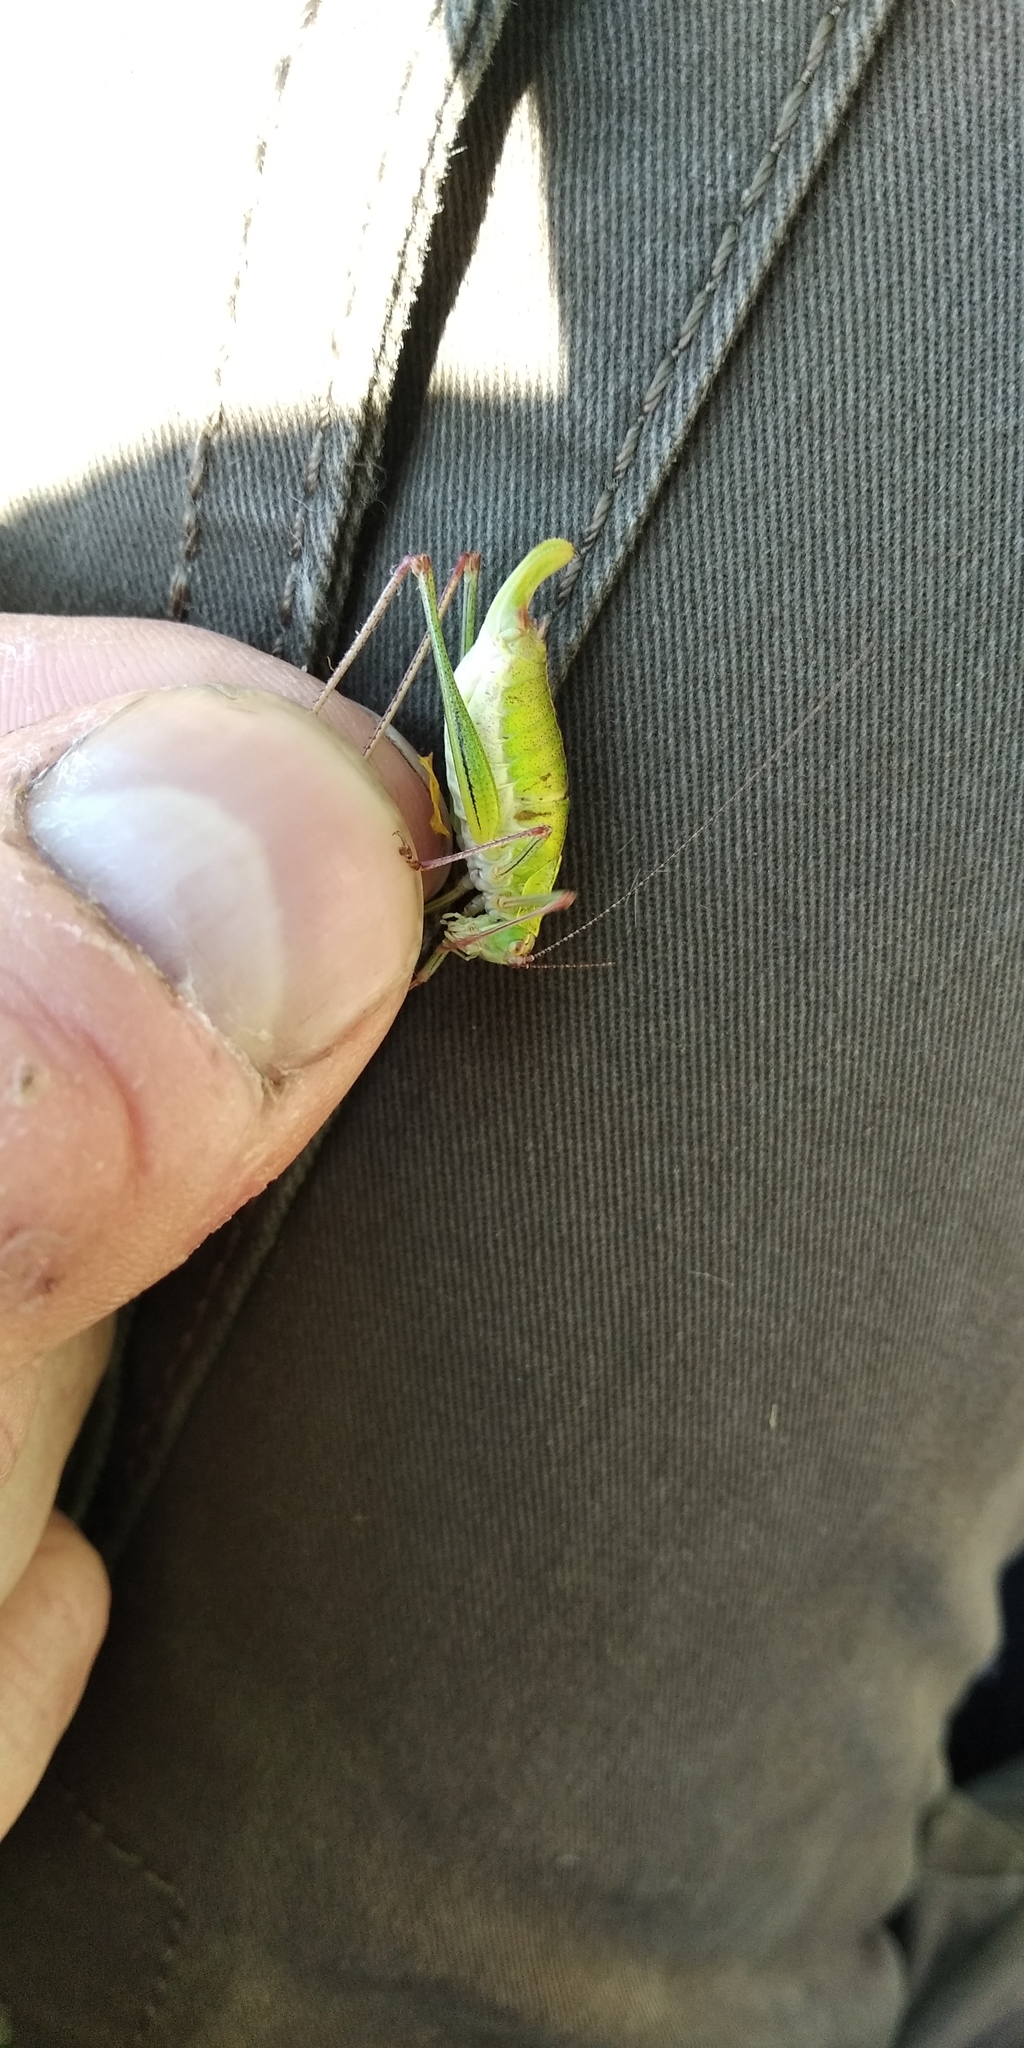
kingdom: Animalia
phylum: Arthropoda
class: Insecta
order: Orthoptera
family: Tettigoniidae
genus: Leptophyes
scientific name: Leptophyes albovittata
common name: Striped bush-cricket
